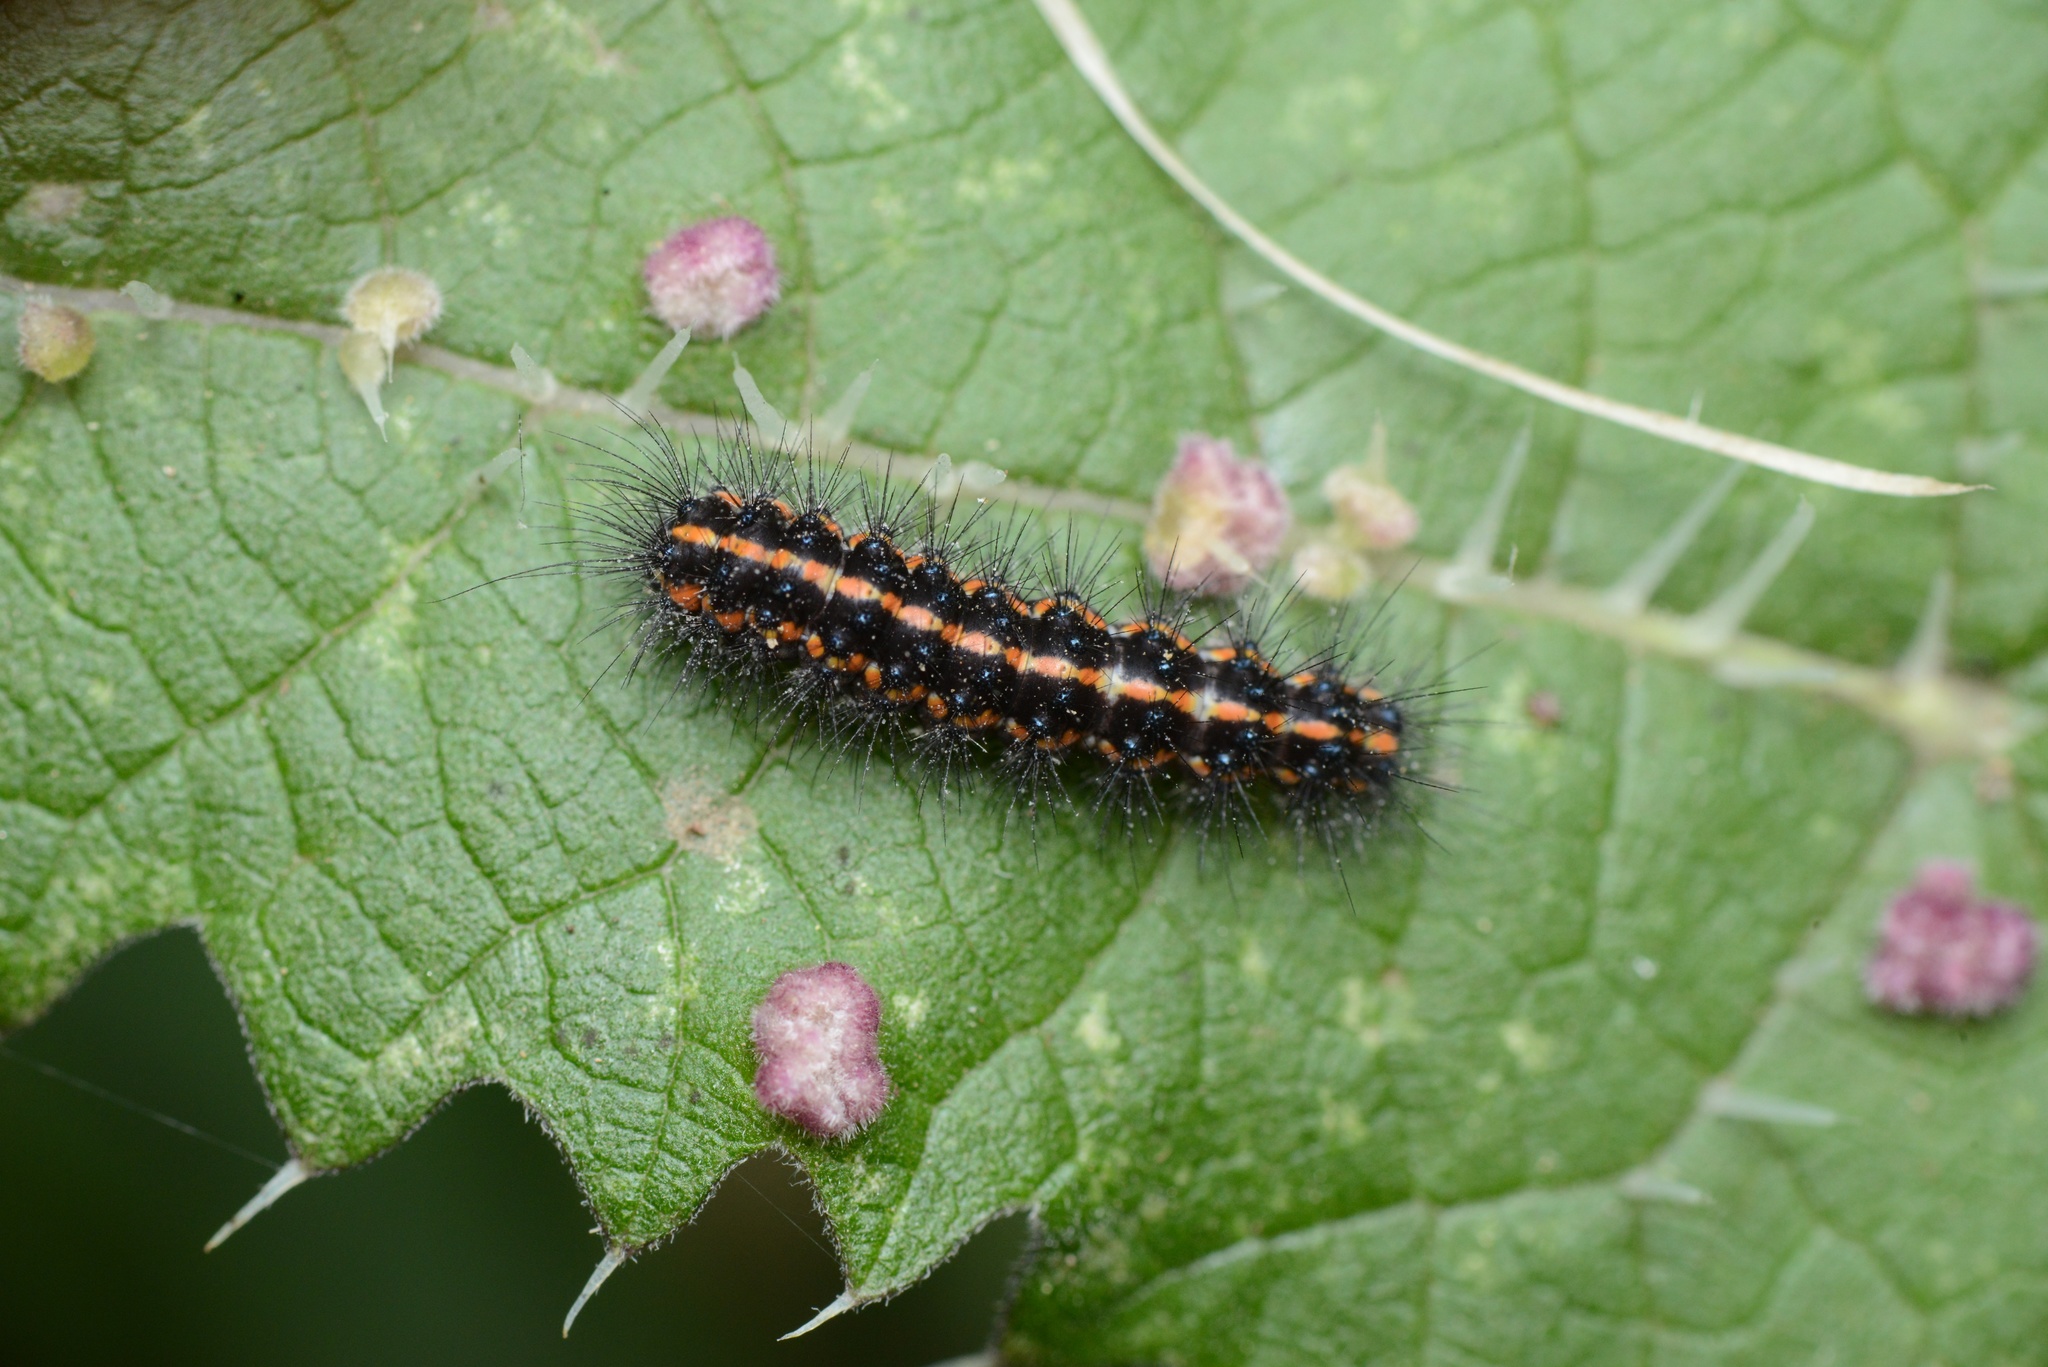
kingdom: Animalia
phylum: Arthropoda
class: Insecta
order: Lepidoptera
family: Erebidae
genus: Nyctemera
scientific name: Nyctemera annulatum
